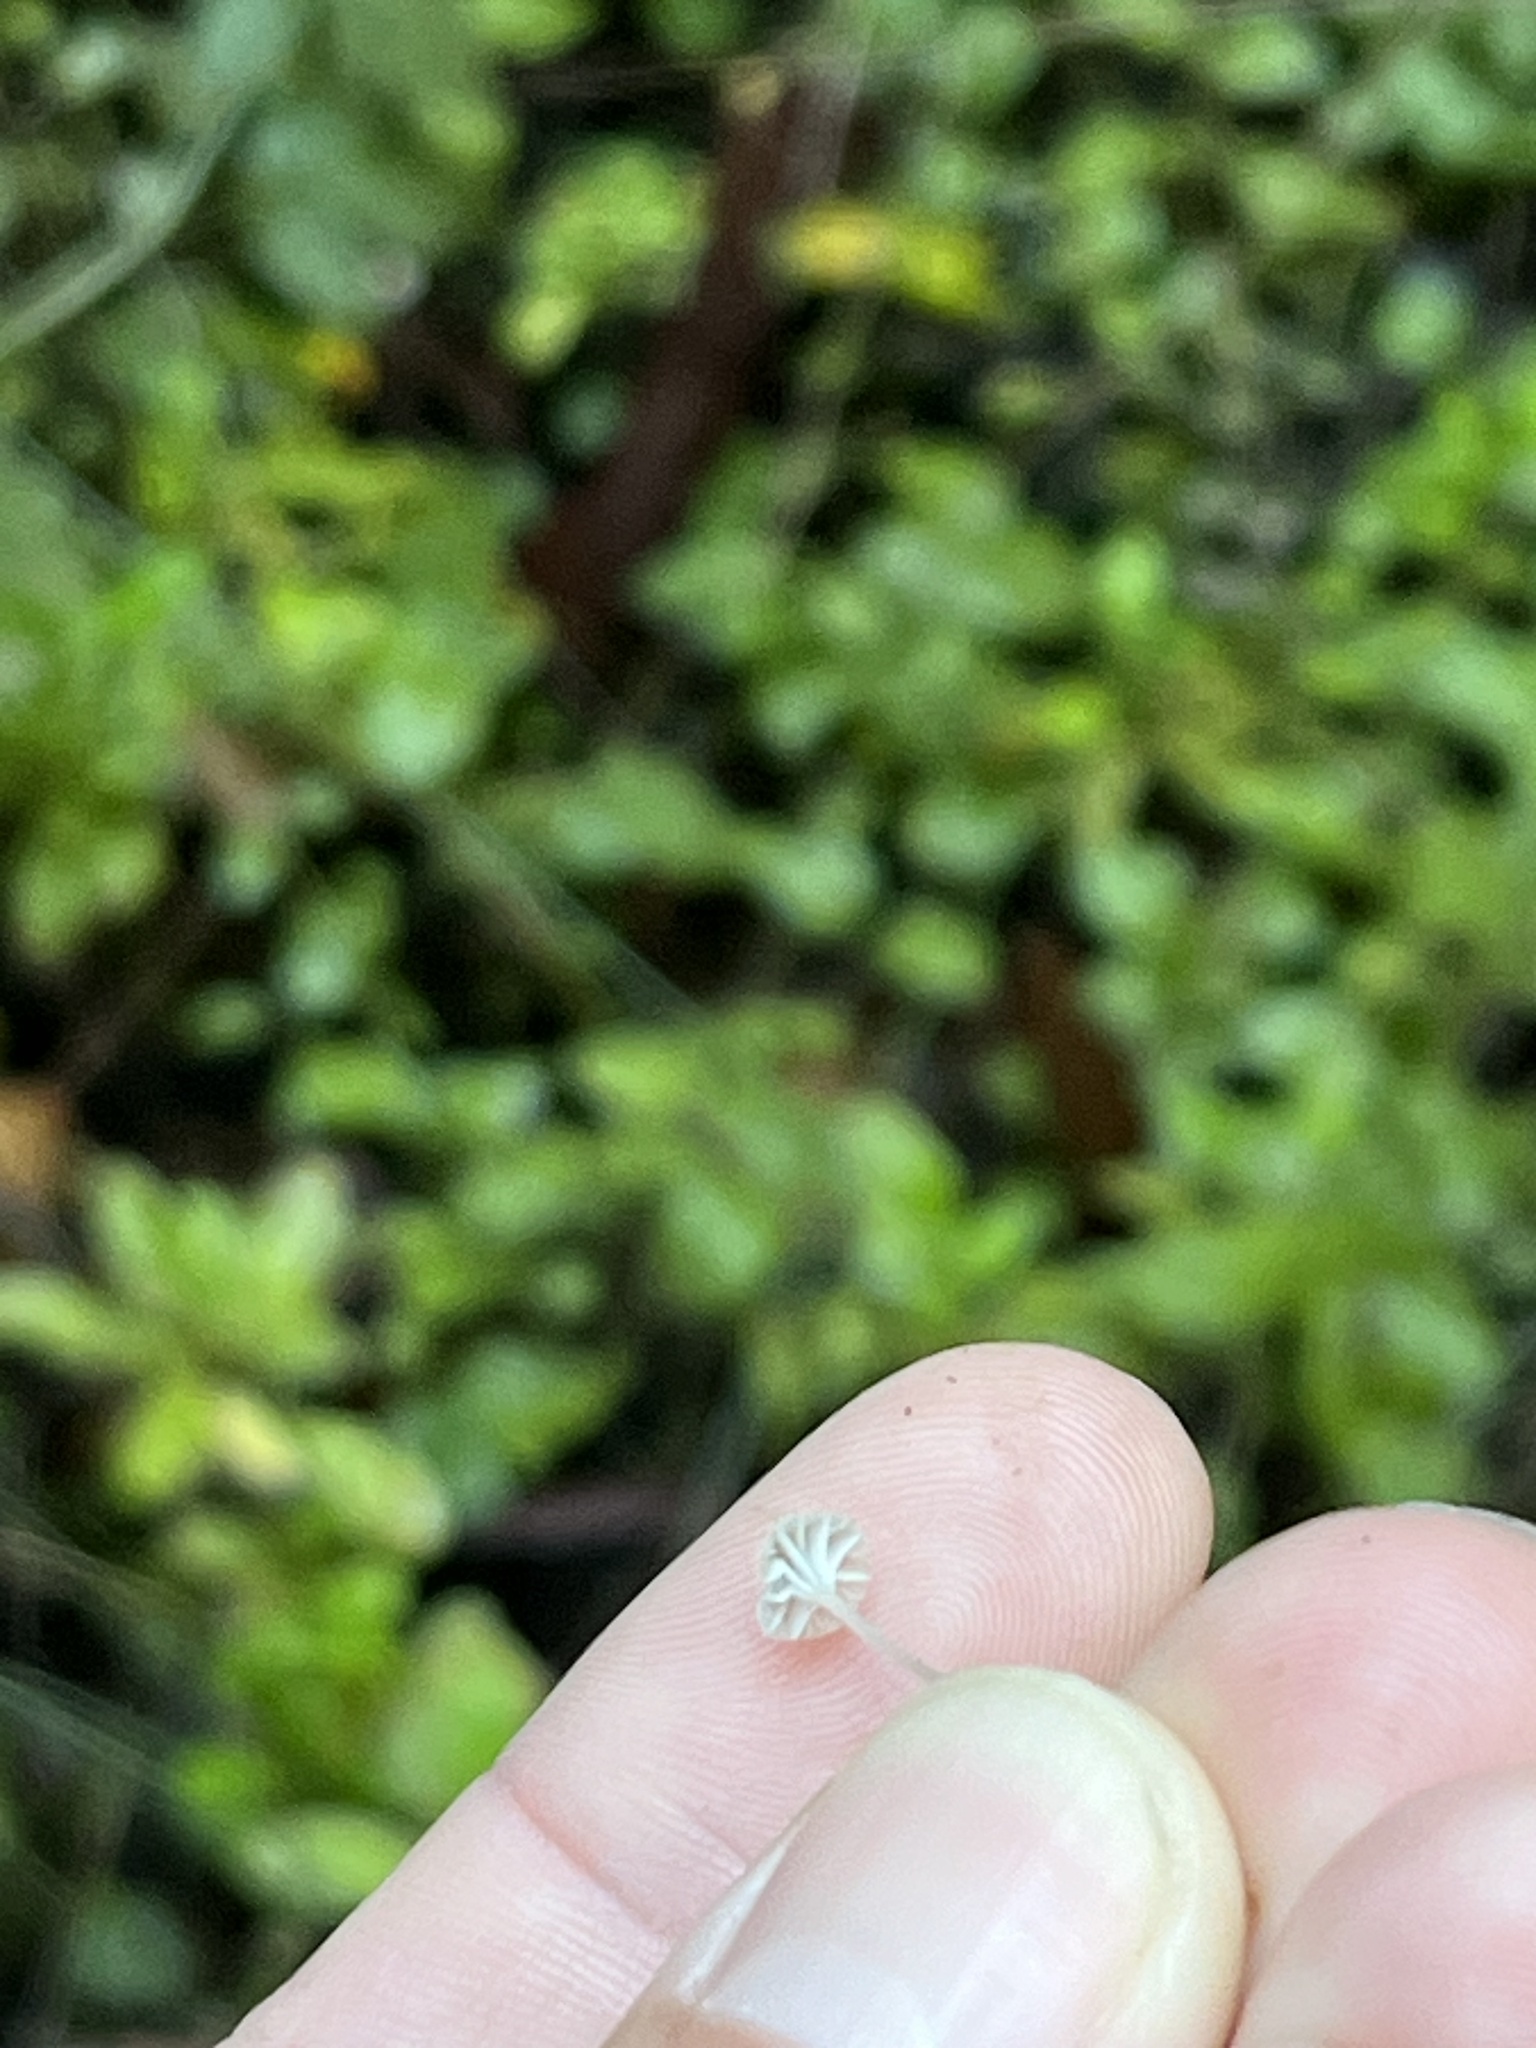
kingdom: Fungi
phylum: Basidiomycota
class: Agaricomycetes
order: Agaricales
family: Porotheleaceae
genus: Phloeomana
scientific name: Phloeomana speirea
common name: Bark bonnet
